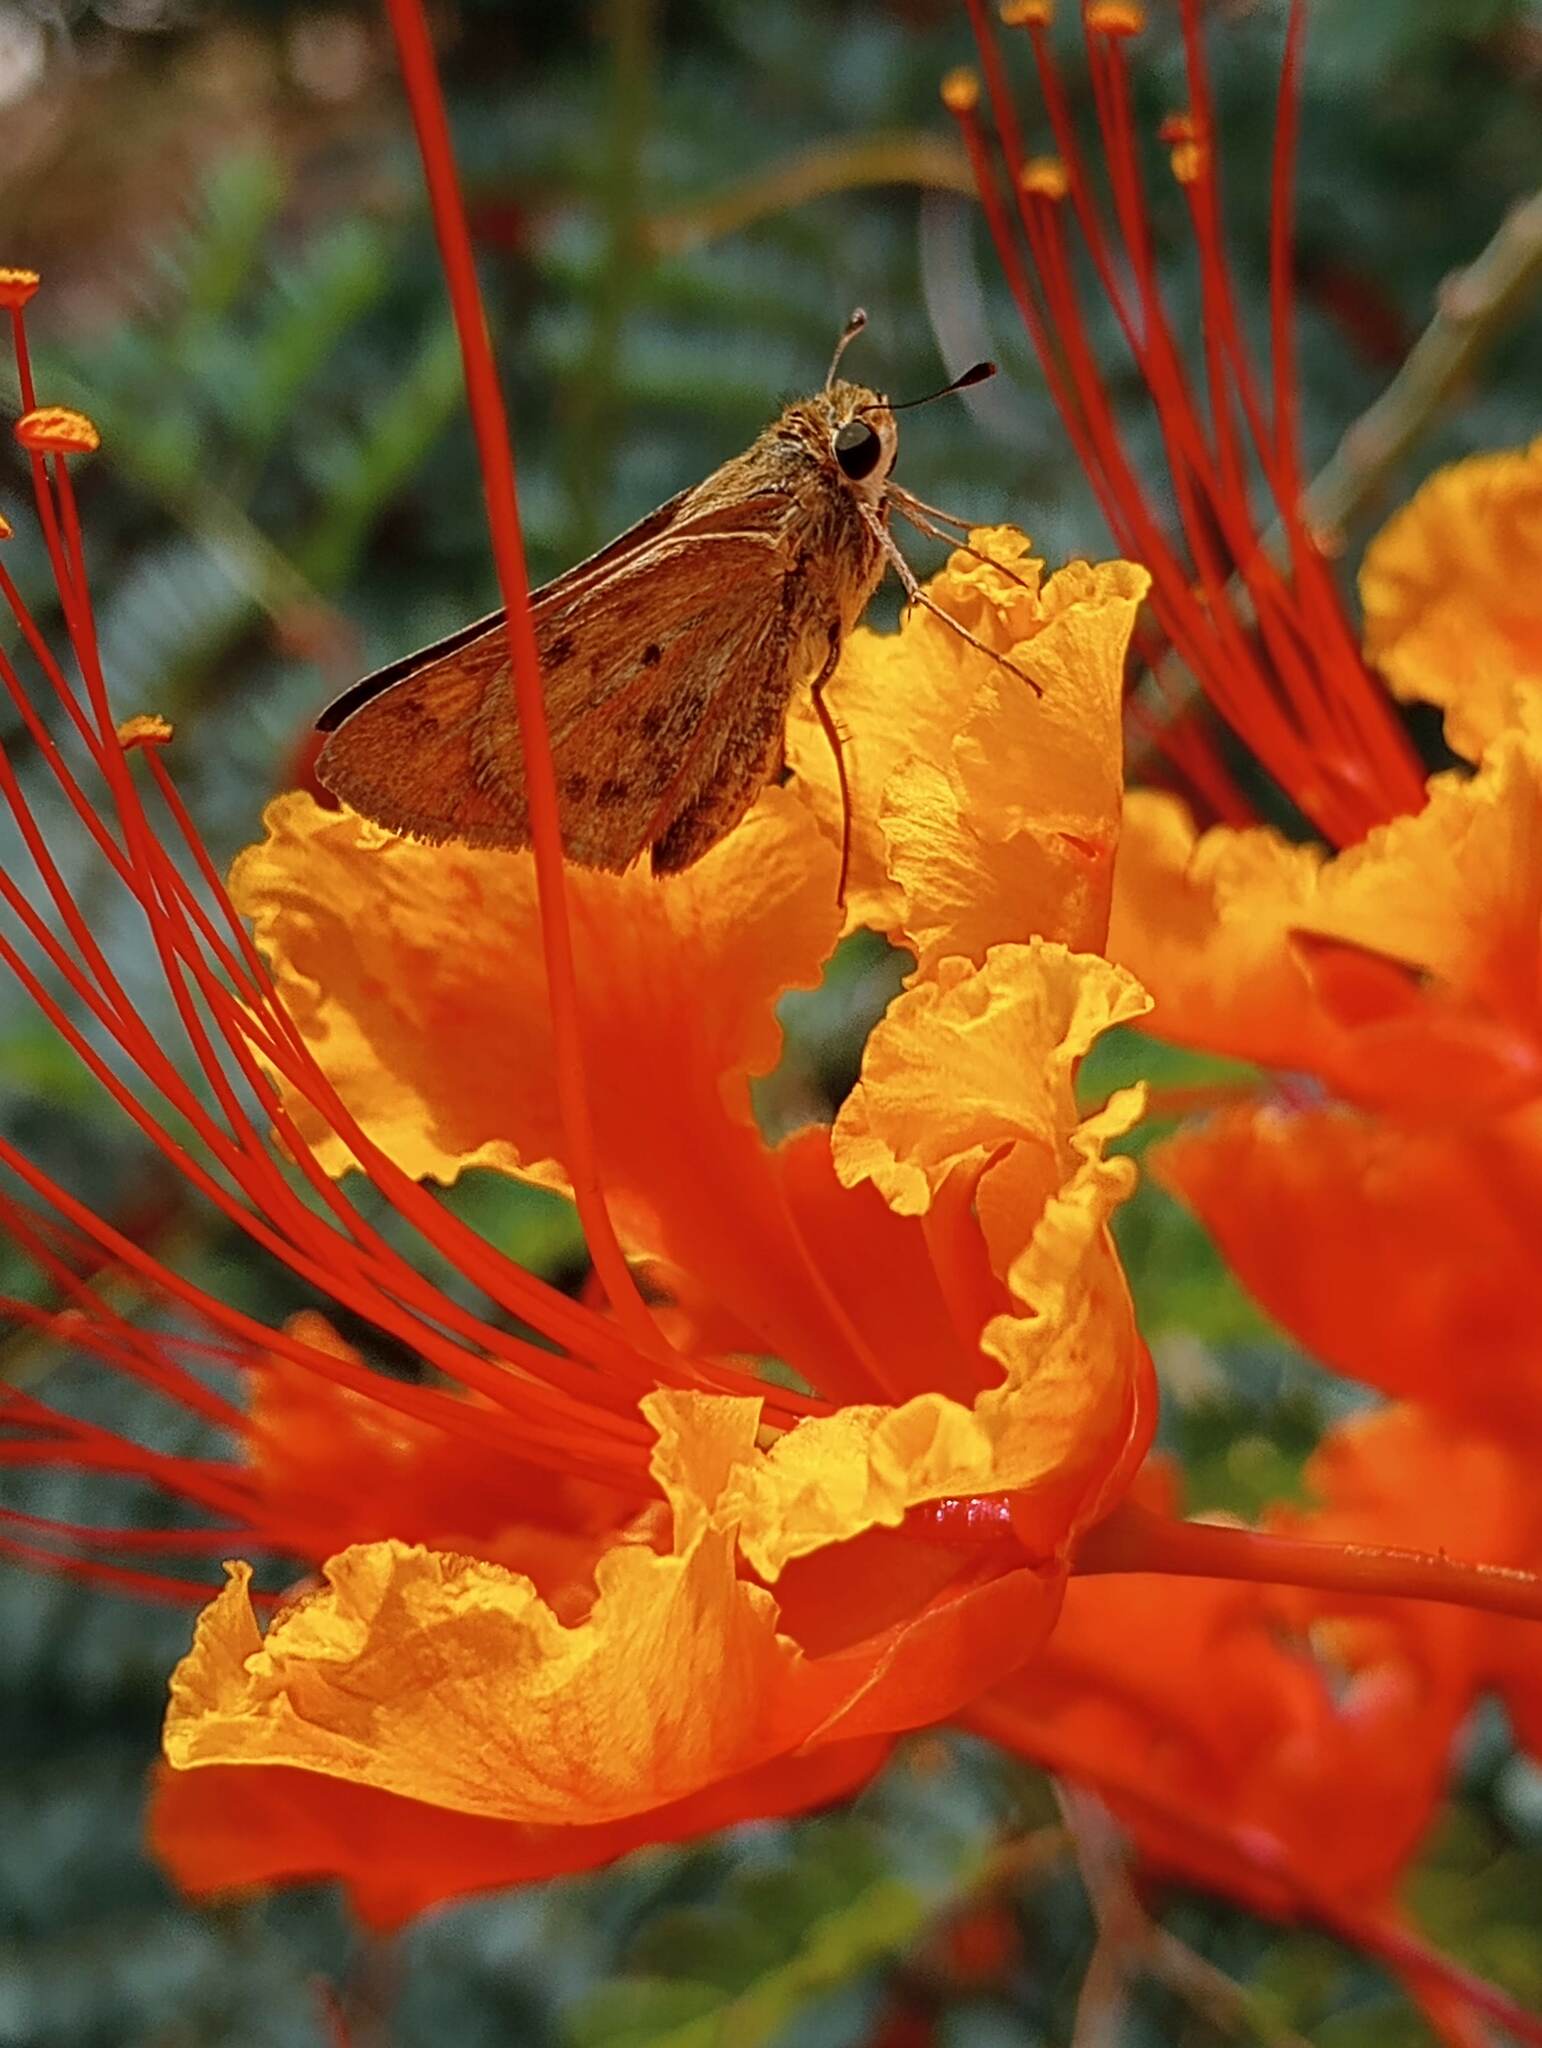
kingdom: Animalia
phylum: Arthropoda
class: Insecta
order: Lepidoptera
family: Hesperiidae
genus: Hylephila
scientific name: Hylephila phyleus
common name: Fiery skipper
